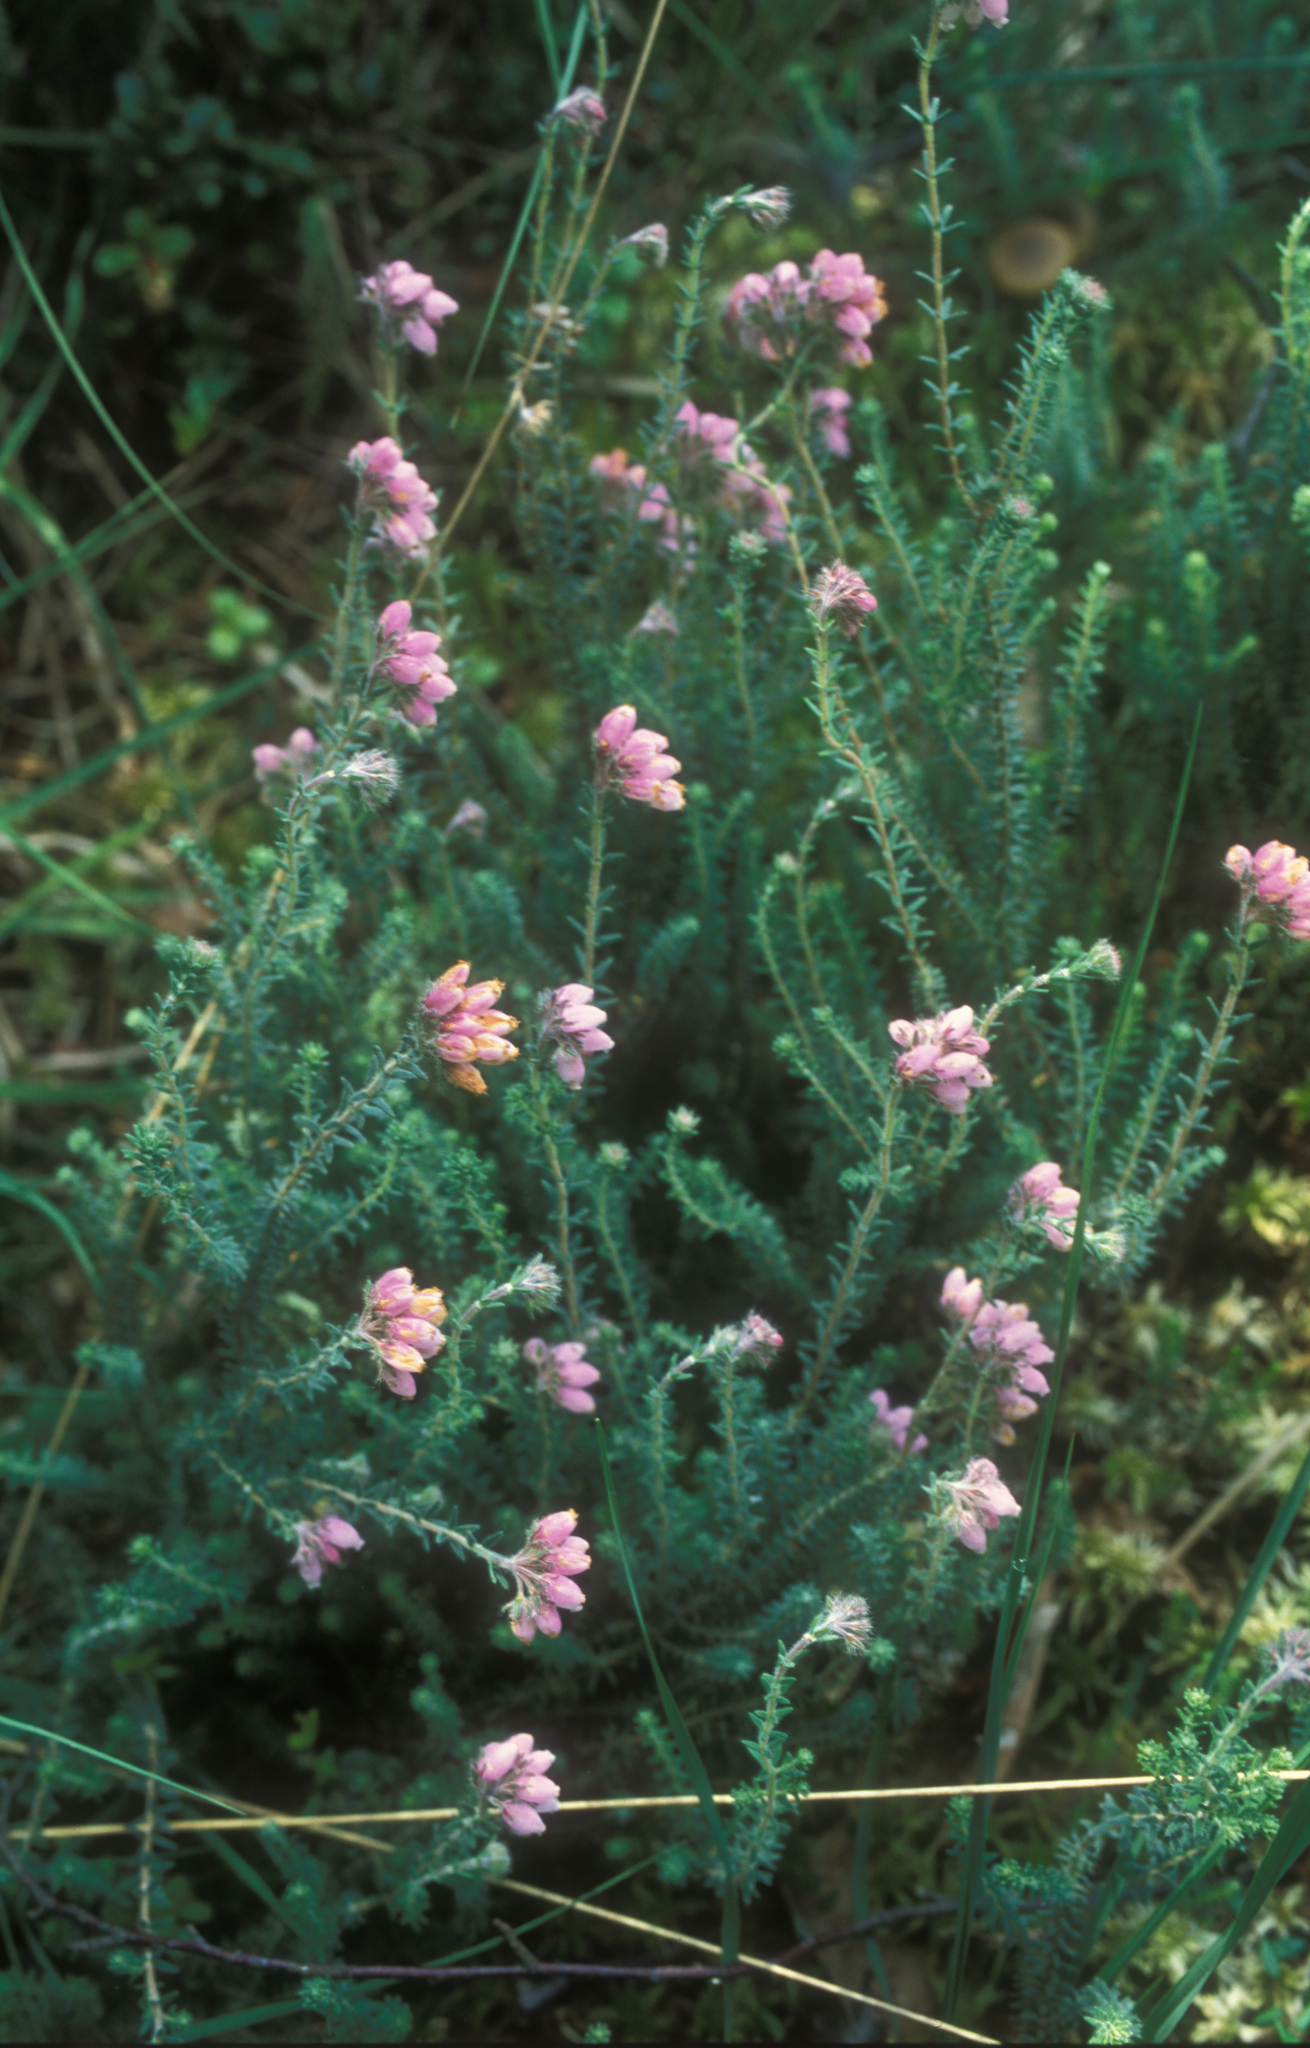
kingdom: Plantae
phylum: Tracheophyta
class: Magnoliopsida
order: Ericales
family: Ericaceae
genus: Erica
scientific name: Erica tetralix
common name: Cross-leaved heath
